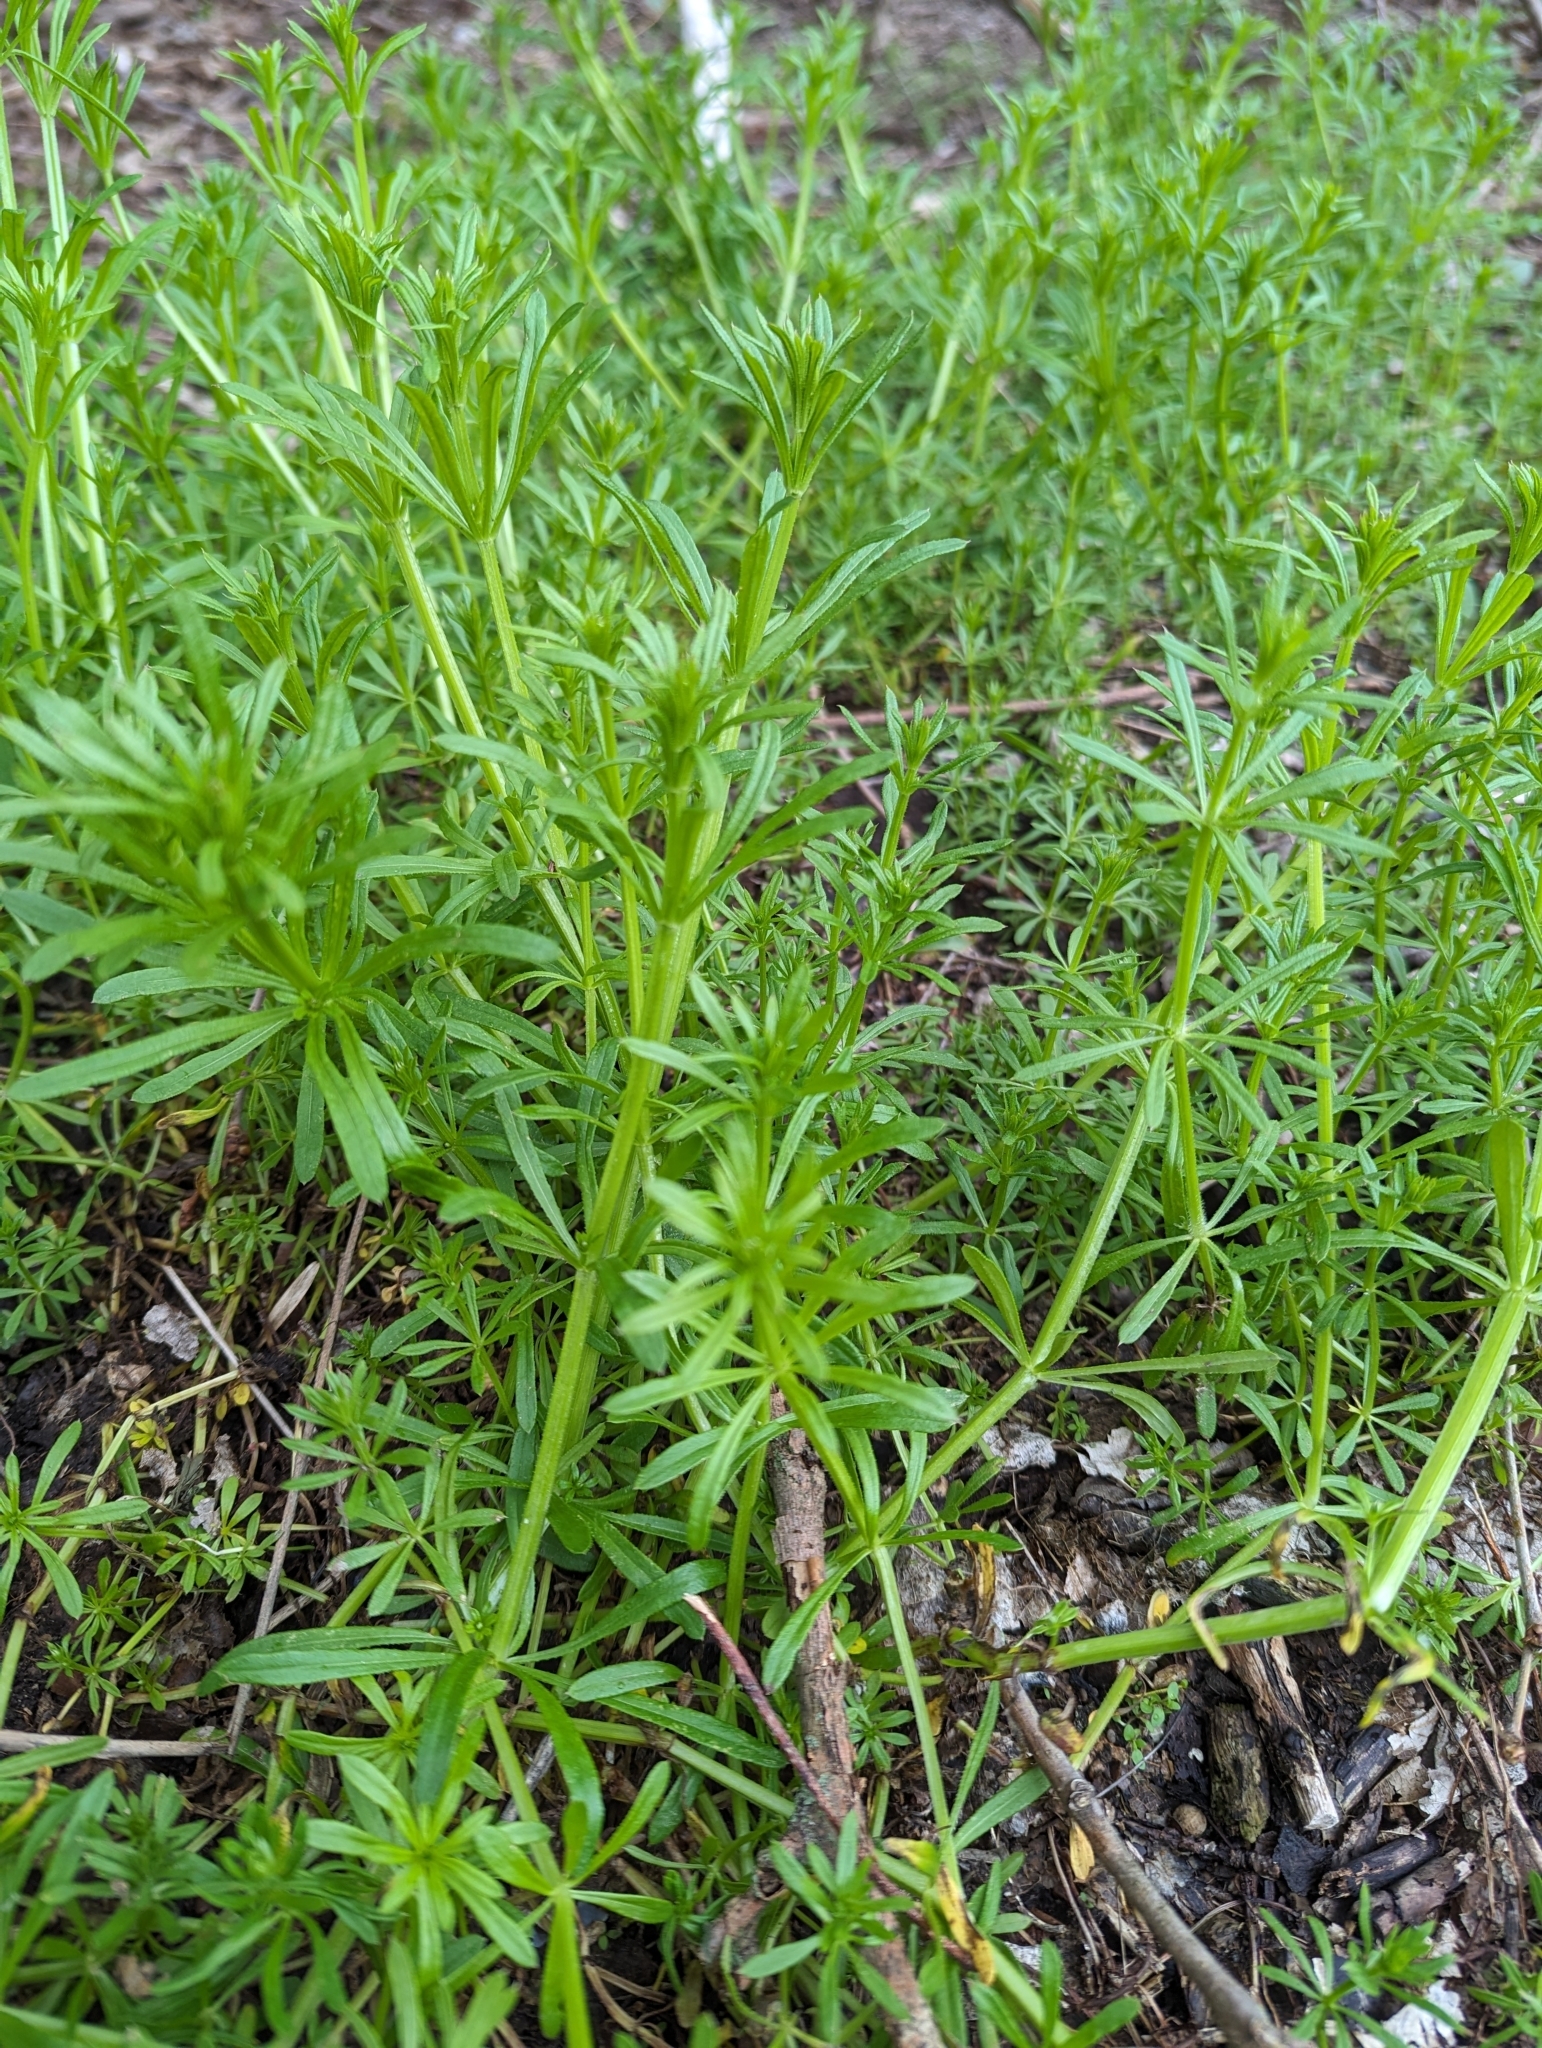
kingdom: Plantae
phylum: Tracheophyta
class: Magnoliopsida
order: Gentianales
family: Rubiaceae
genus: Galium
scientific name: Galium aparine
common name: Cleavers
